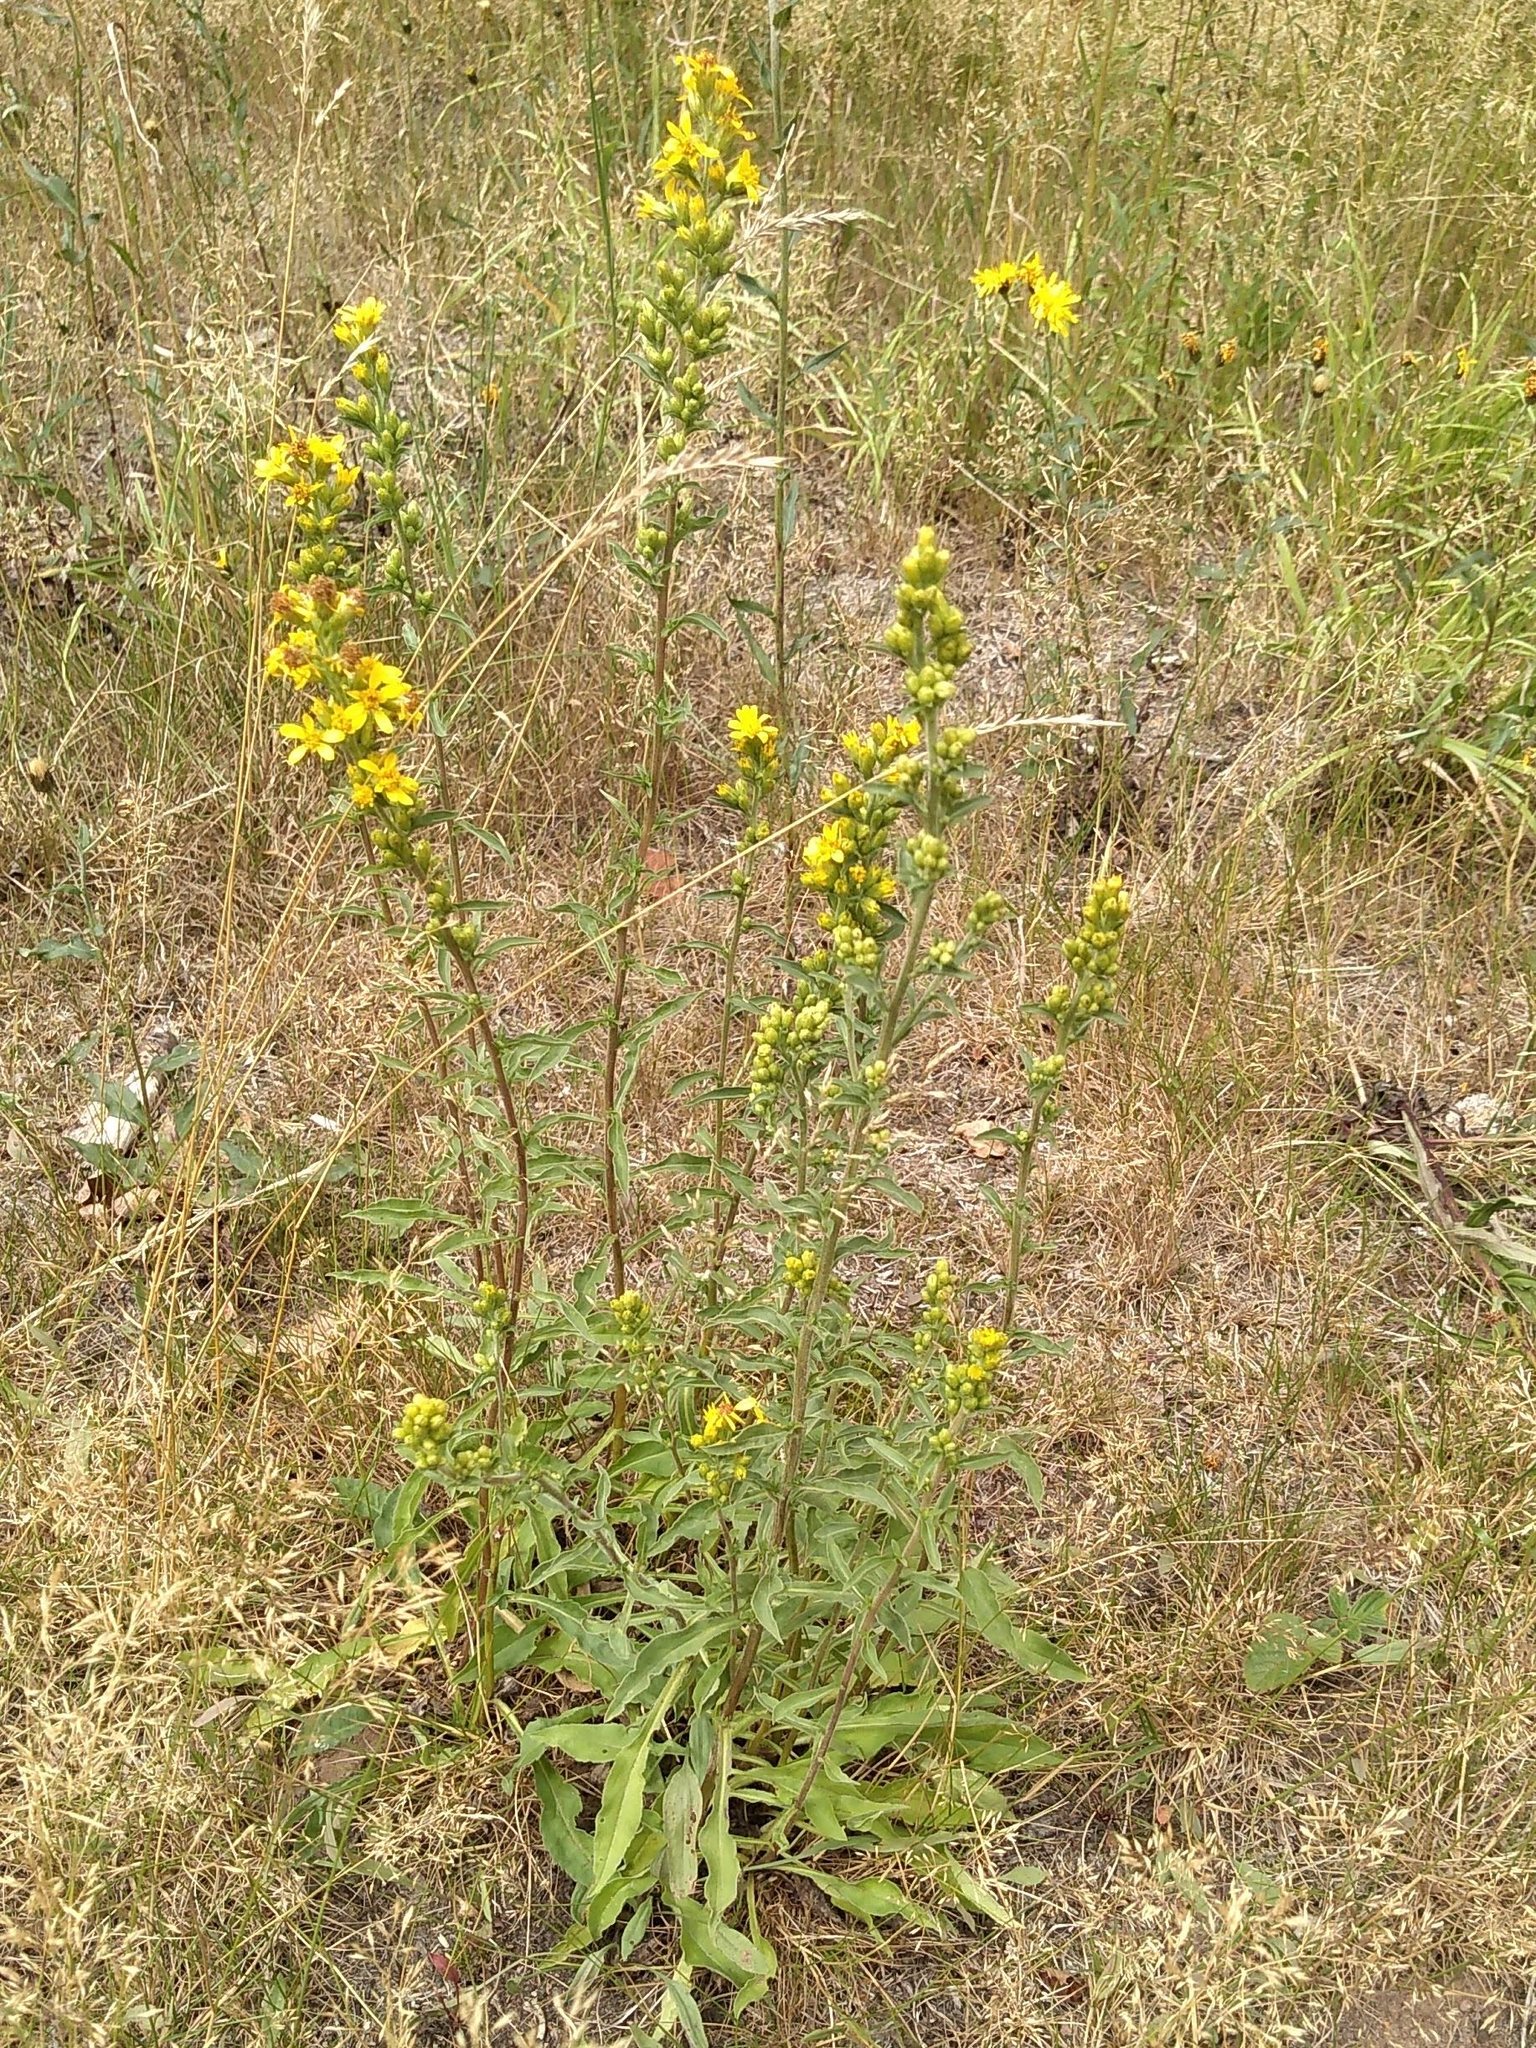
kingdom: Plantae
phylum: Tracheophyta
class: Magnoliopsida
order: Asterales
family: Asteraceae
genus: Solidago
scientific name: Solidago virgaurea
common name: Goldenrod
